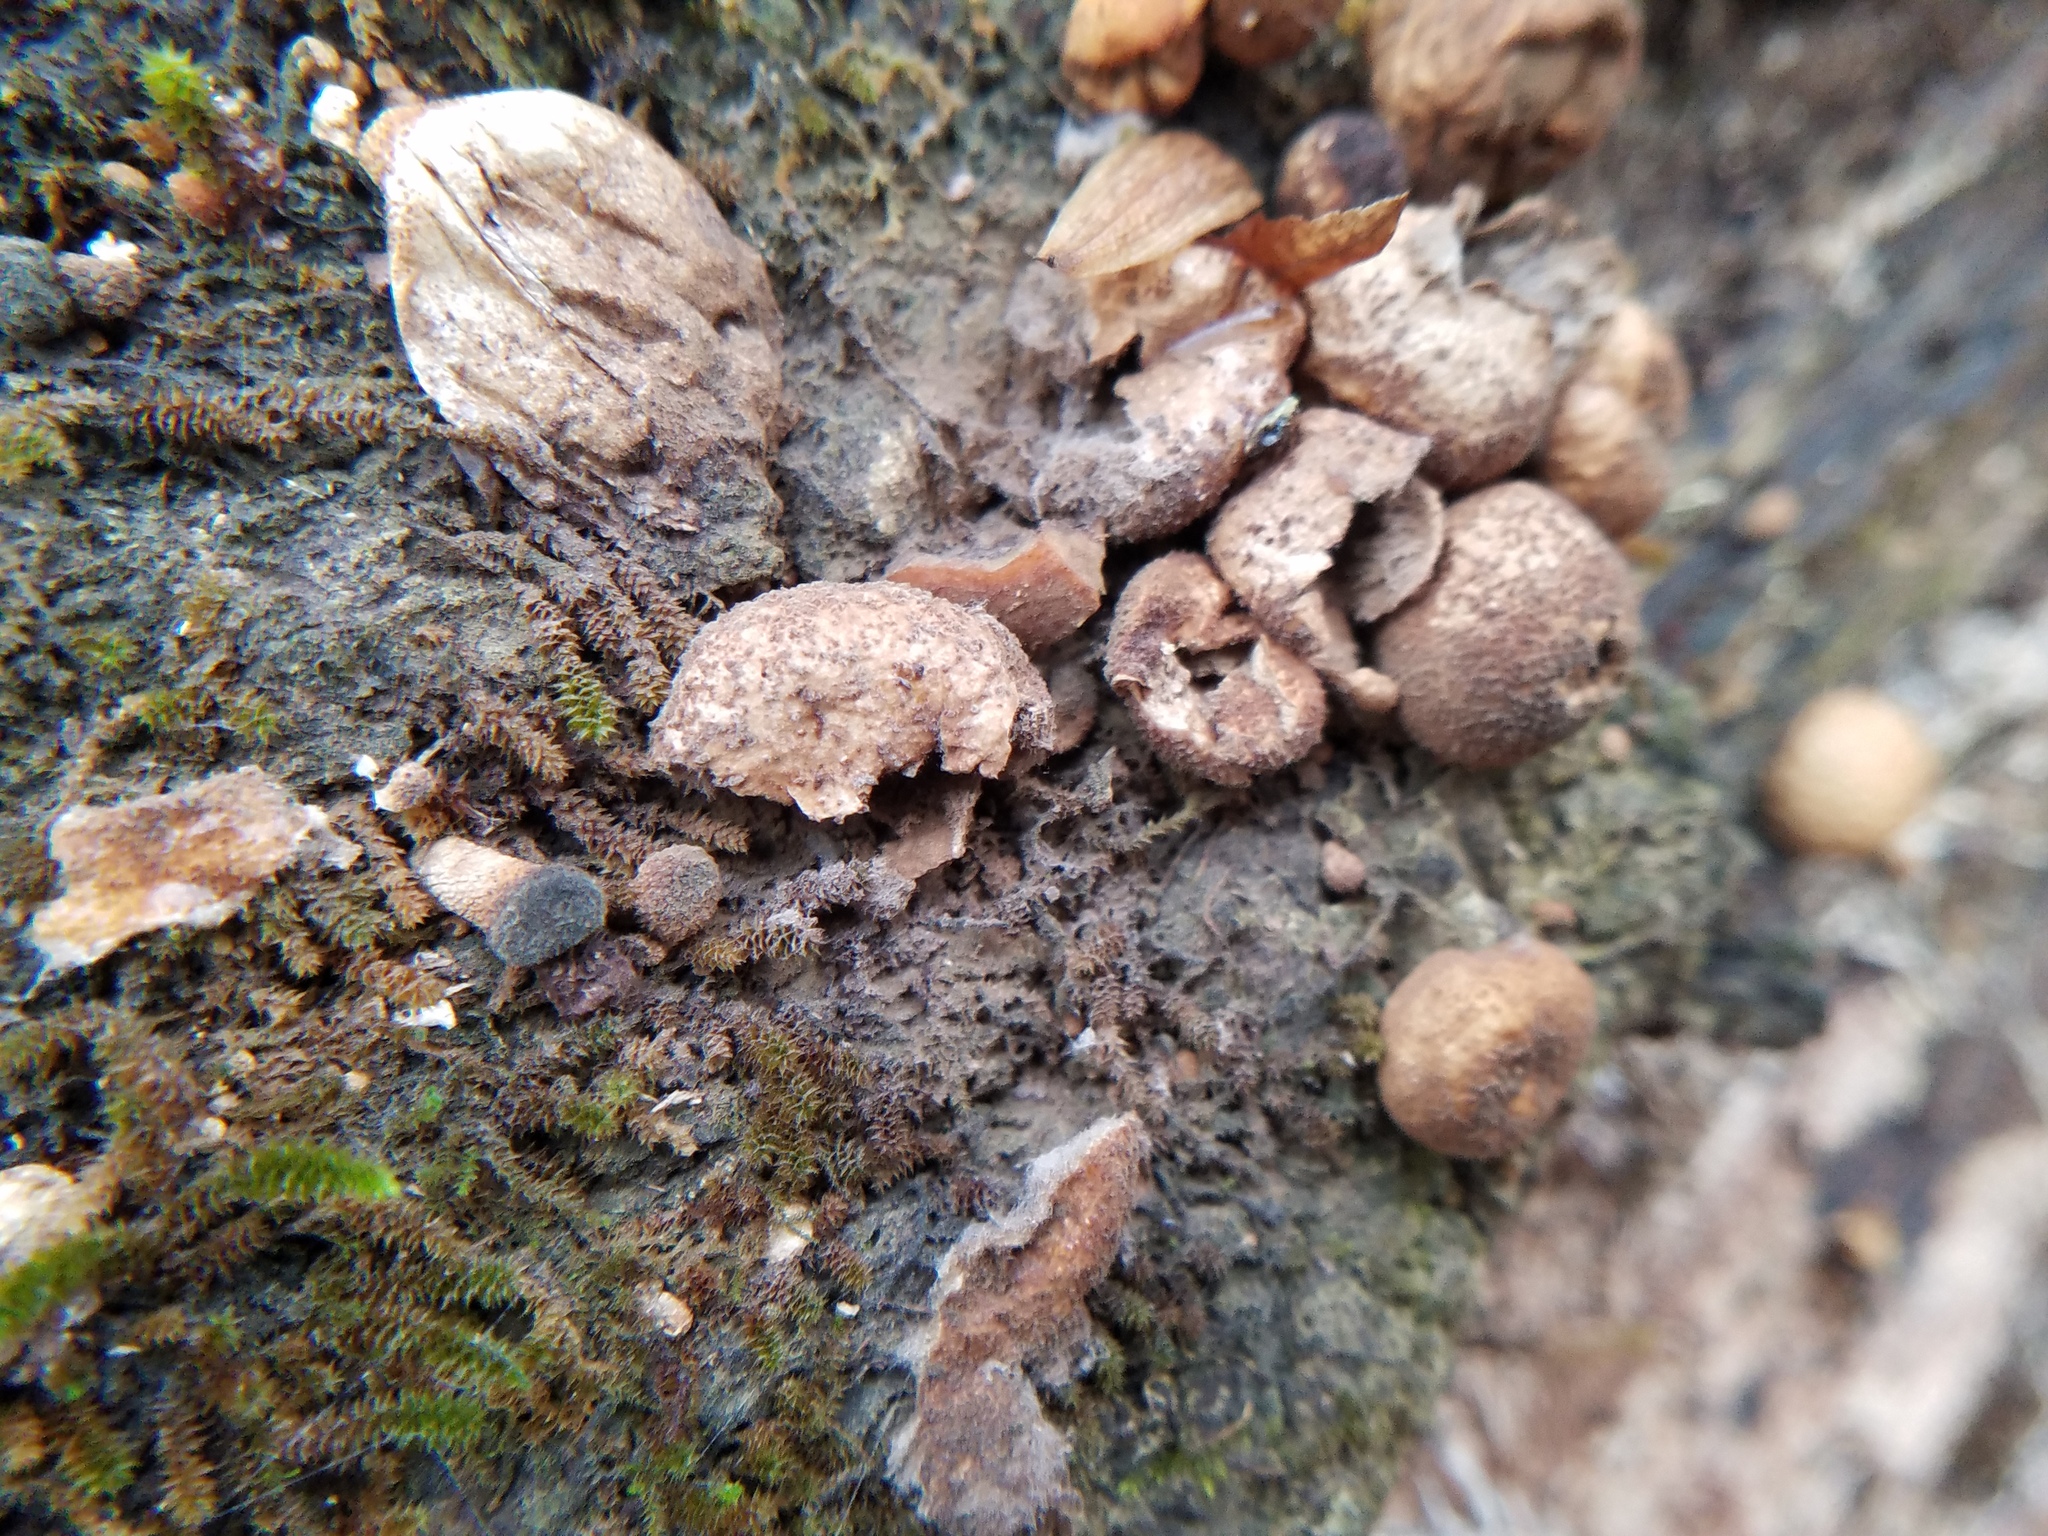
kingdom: Fungi
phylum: Basidiomycota
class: Agaricomycetes
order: Agaricales
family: Lycoperdaceae
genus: Apioperdon
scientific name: Apioperdon pyriforme
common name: Pear-shaped puffball
